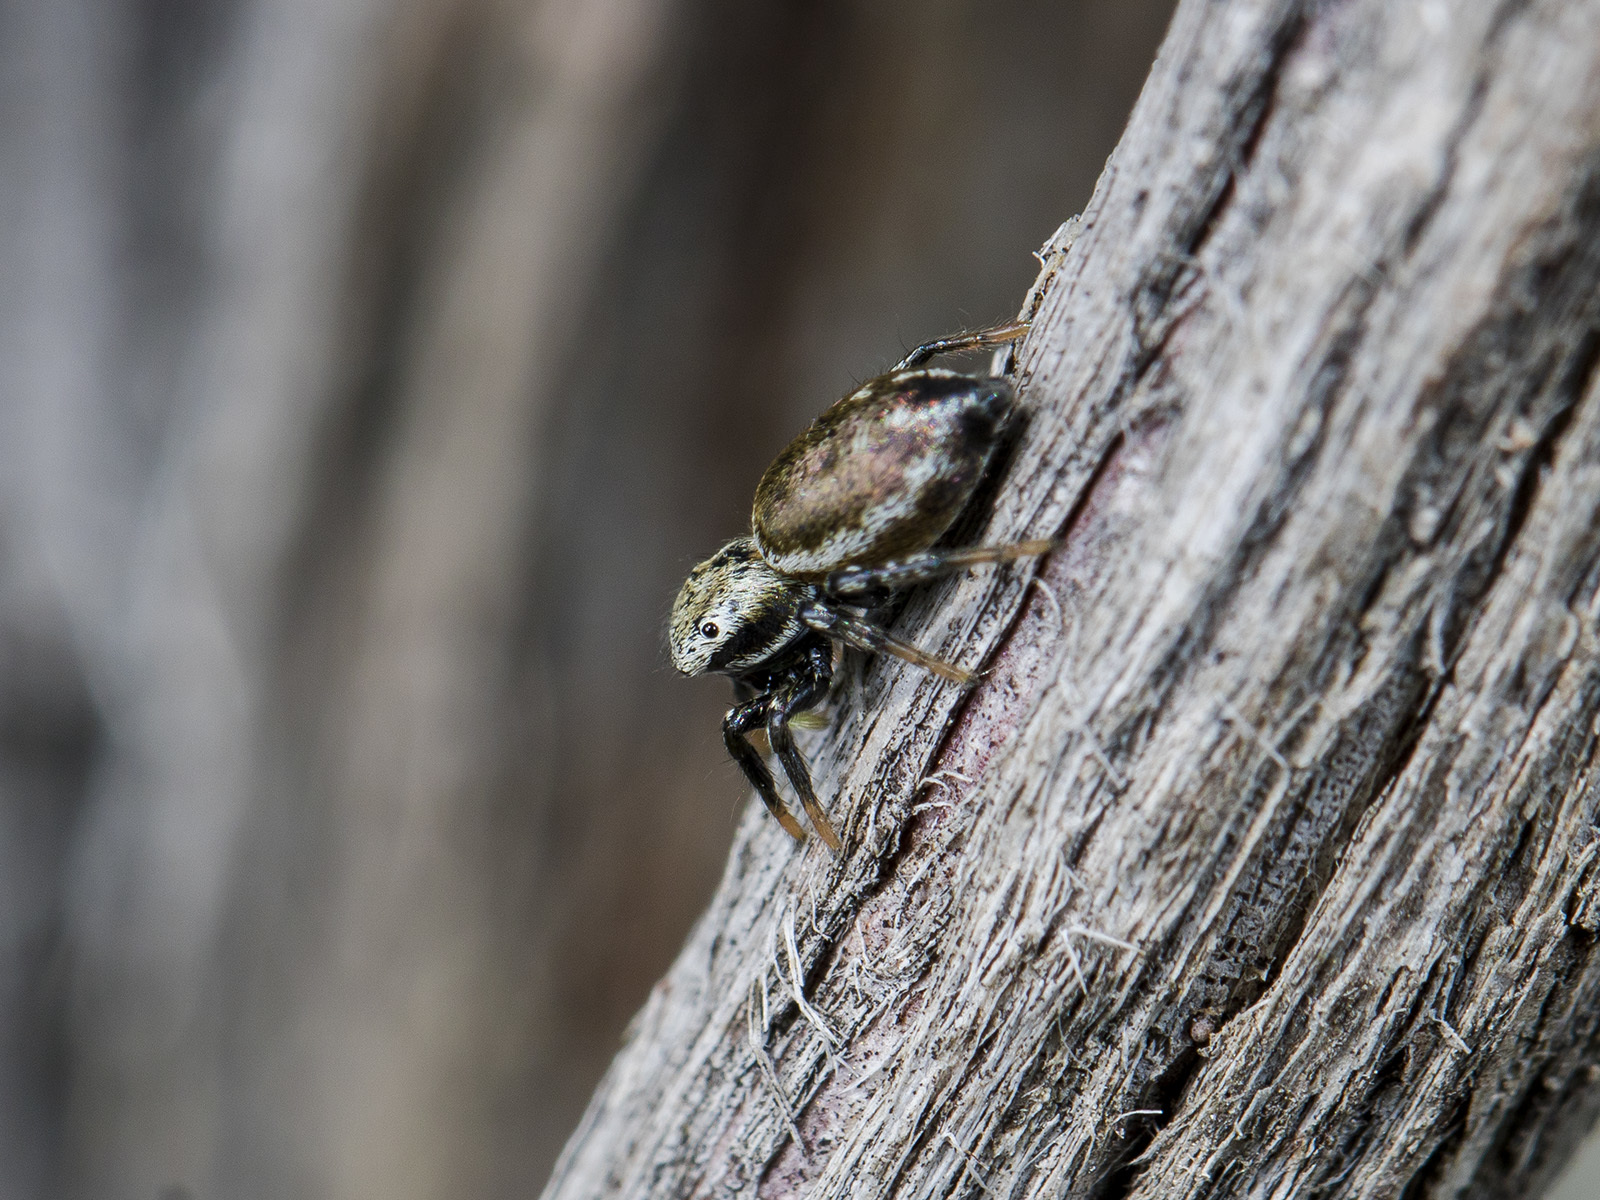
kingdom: Animalia
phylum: Arthropoda
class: Arachnida
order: Araneae
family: Salticidae
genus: Heliophanus
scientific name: Heliophanus potanini
